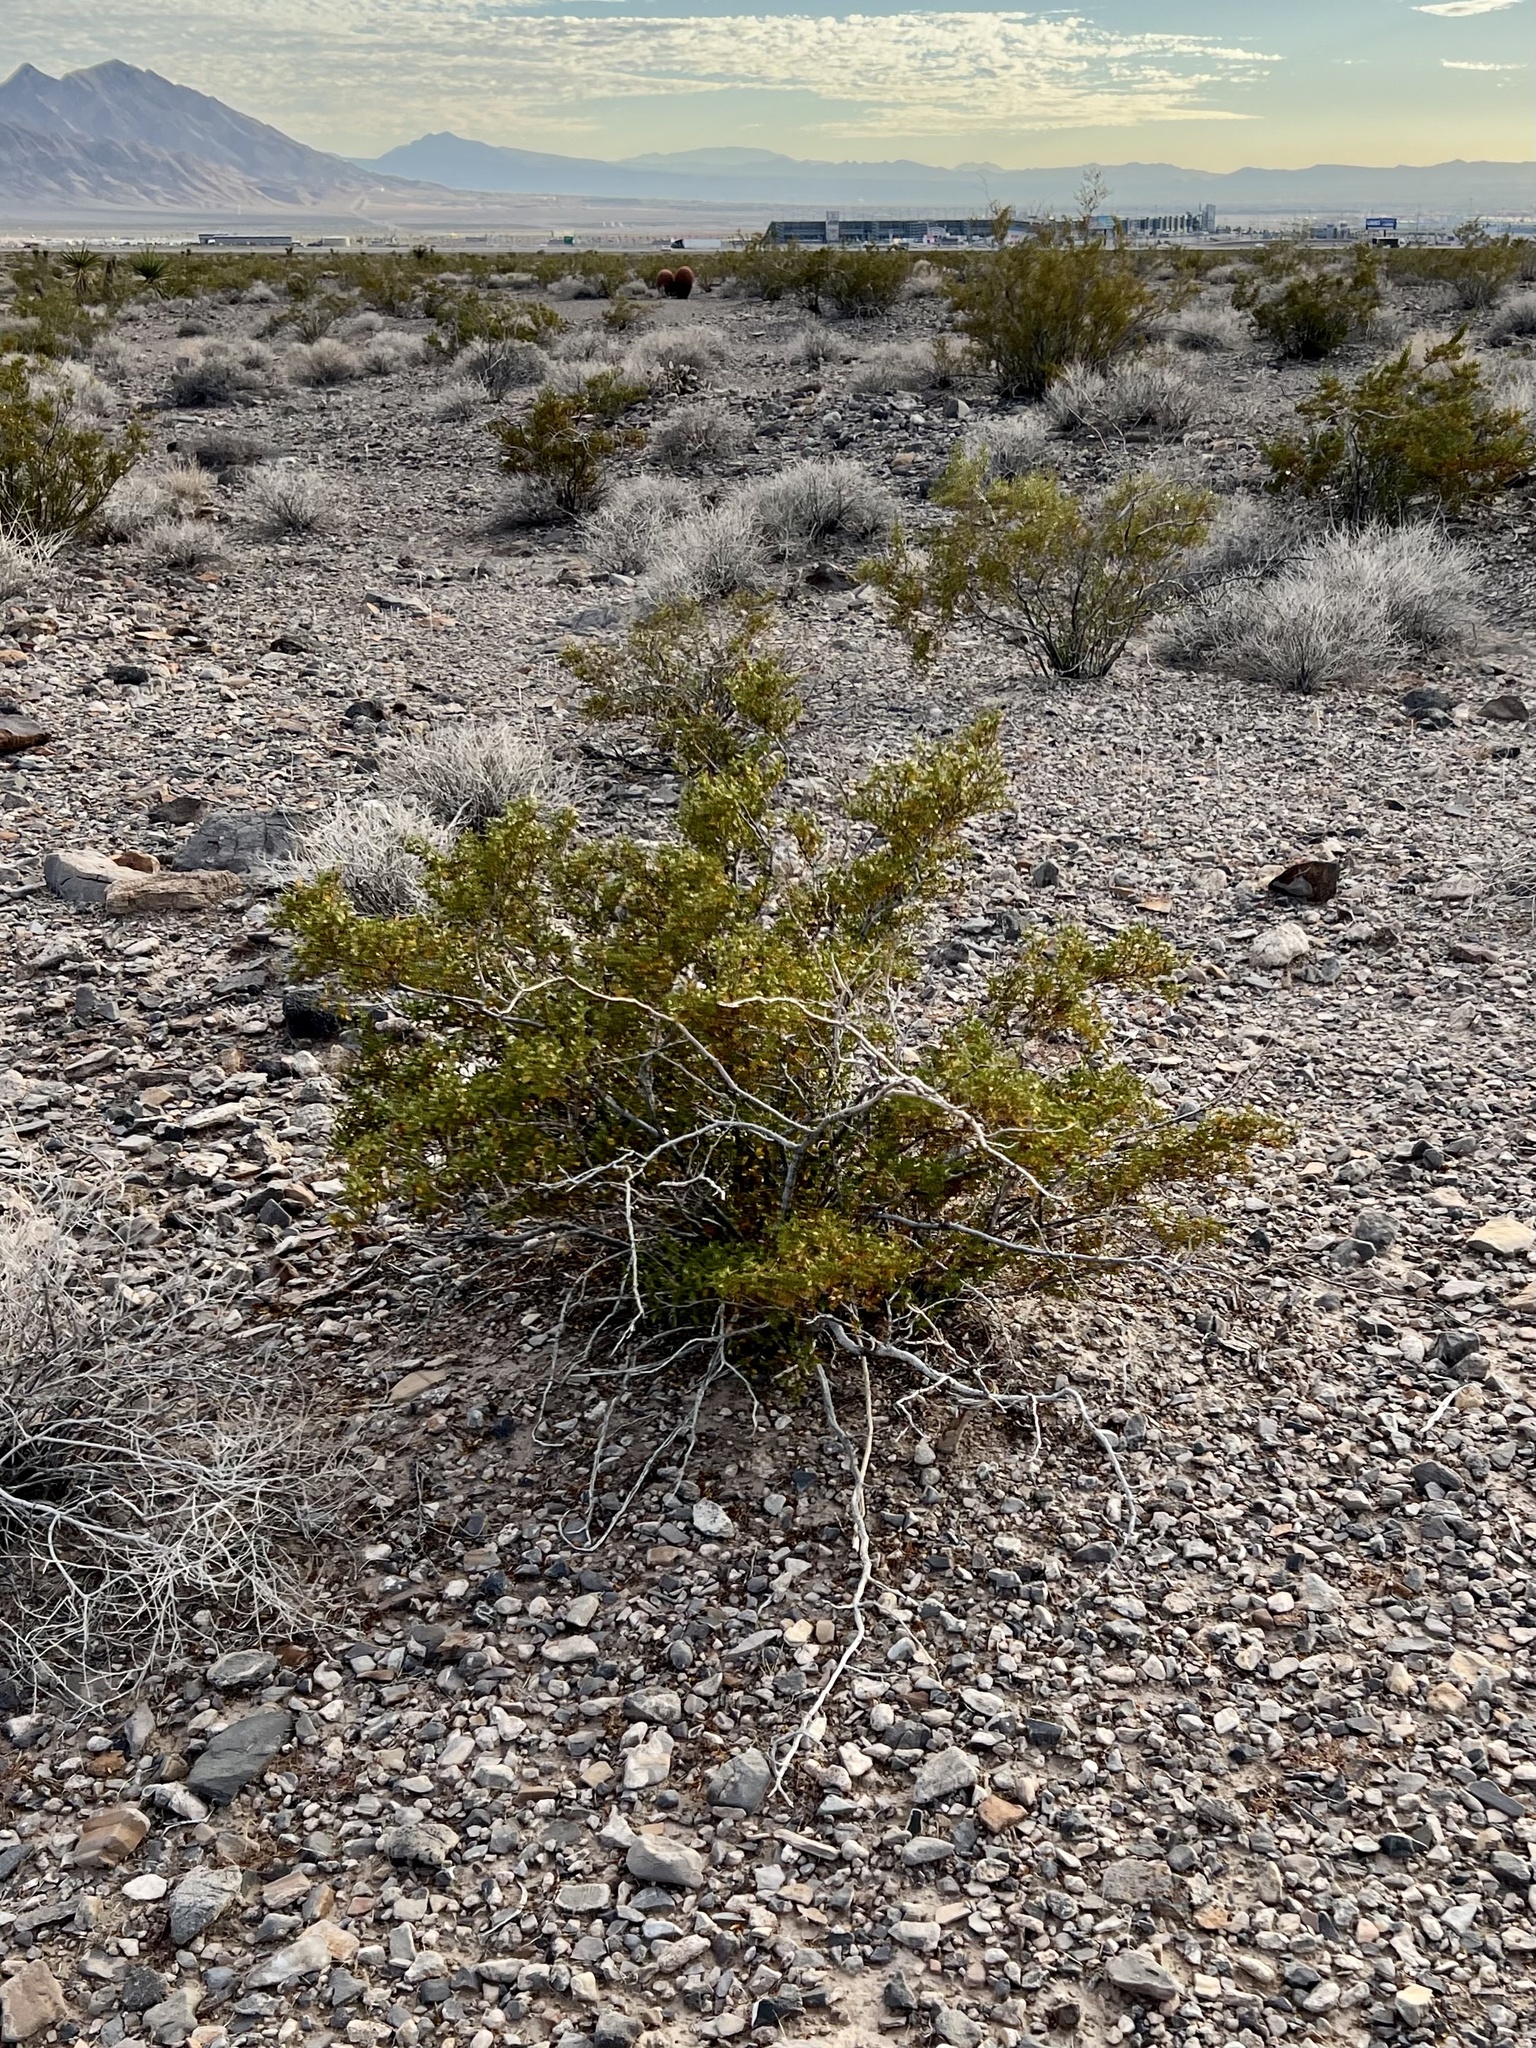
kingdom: Plantae
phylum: Tracheophyta
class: Magnoliopsida
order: Zygophyllales
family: Zygophyllaceae
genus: Larrea
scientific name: Larrea tridentata
